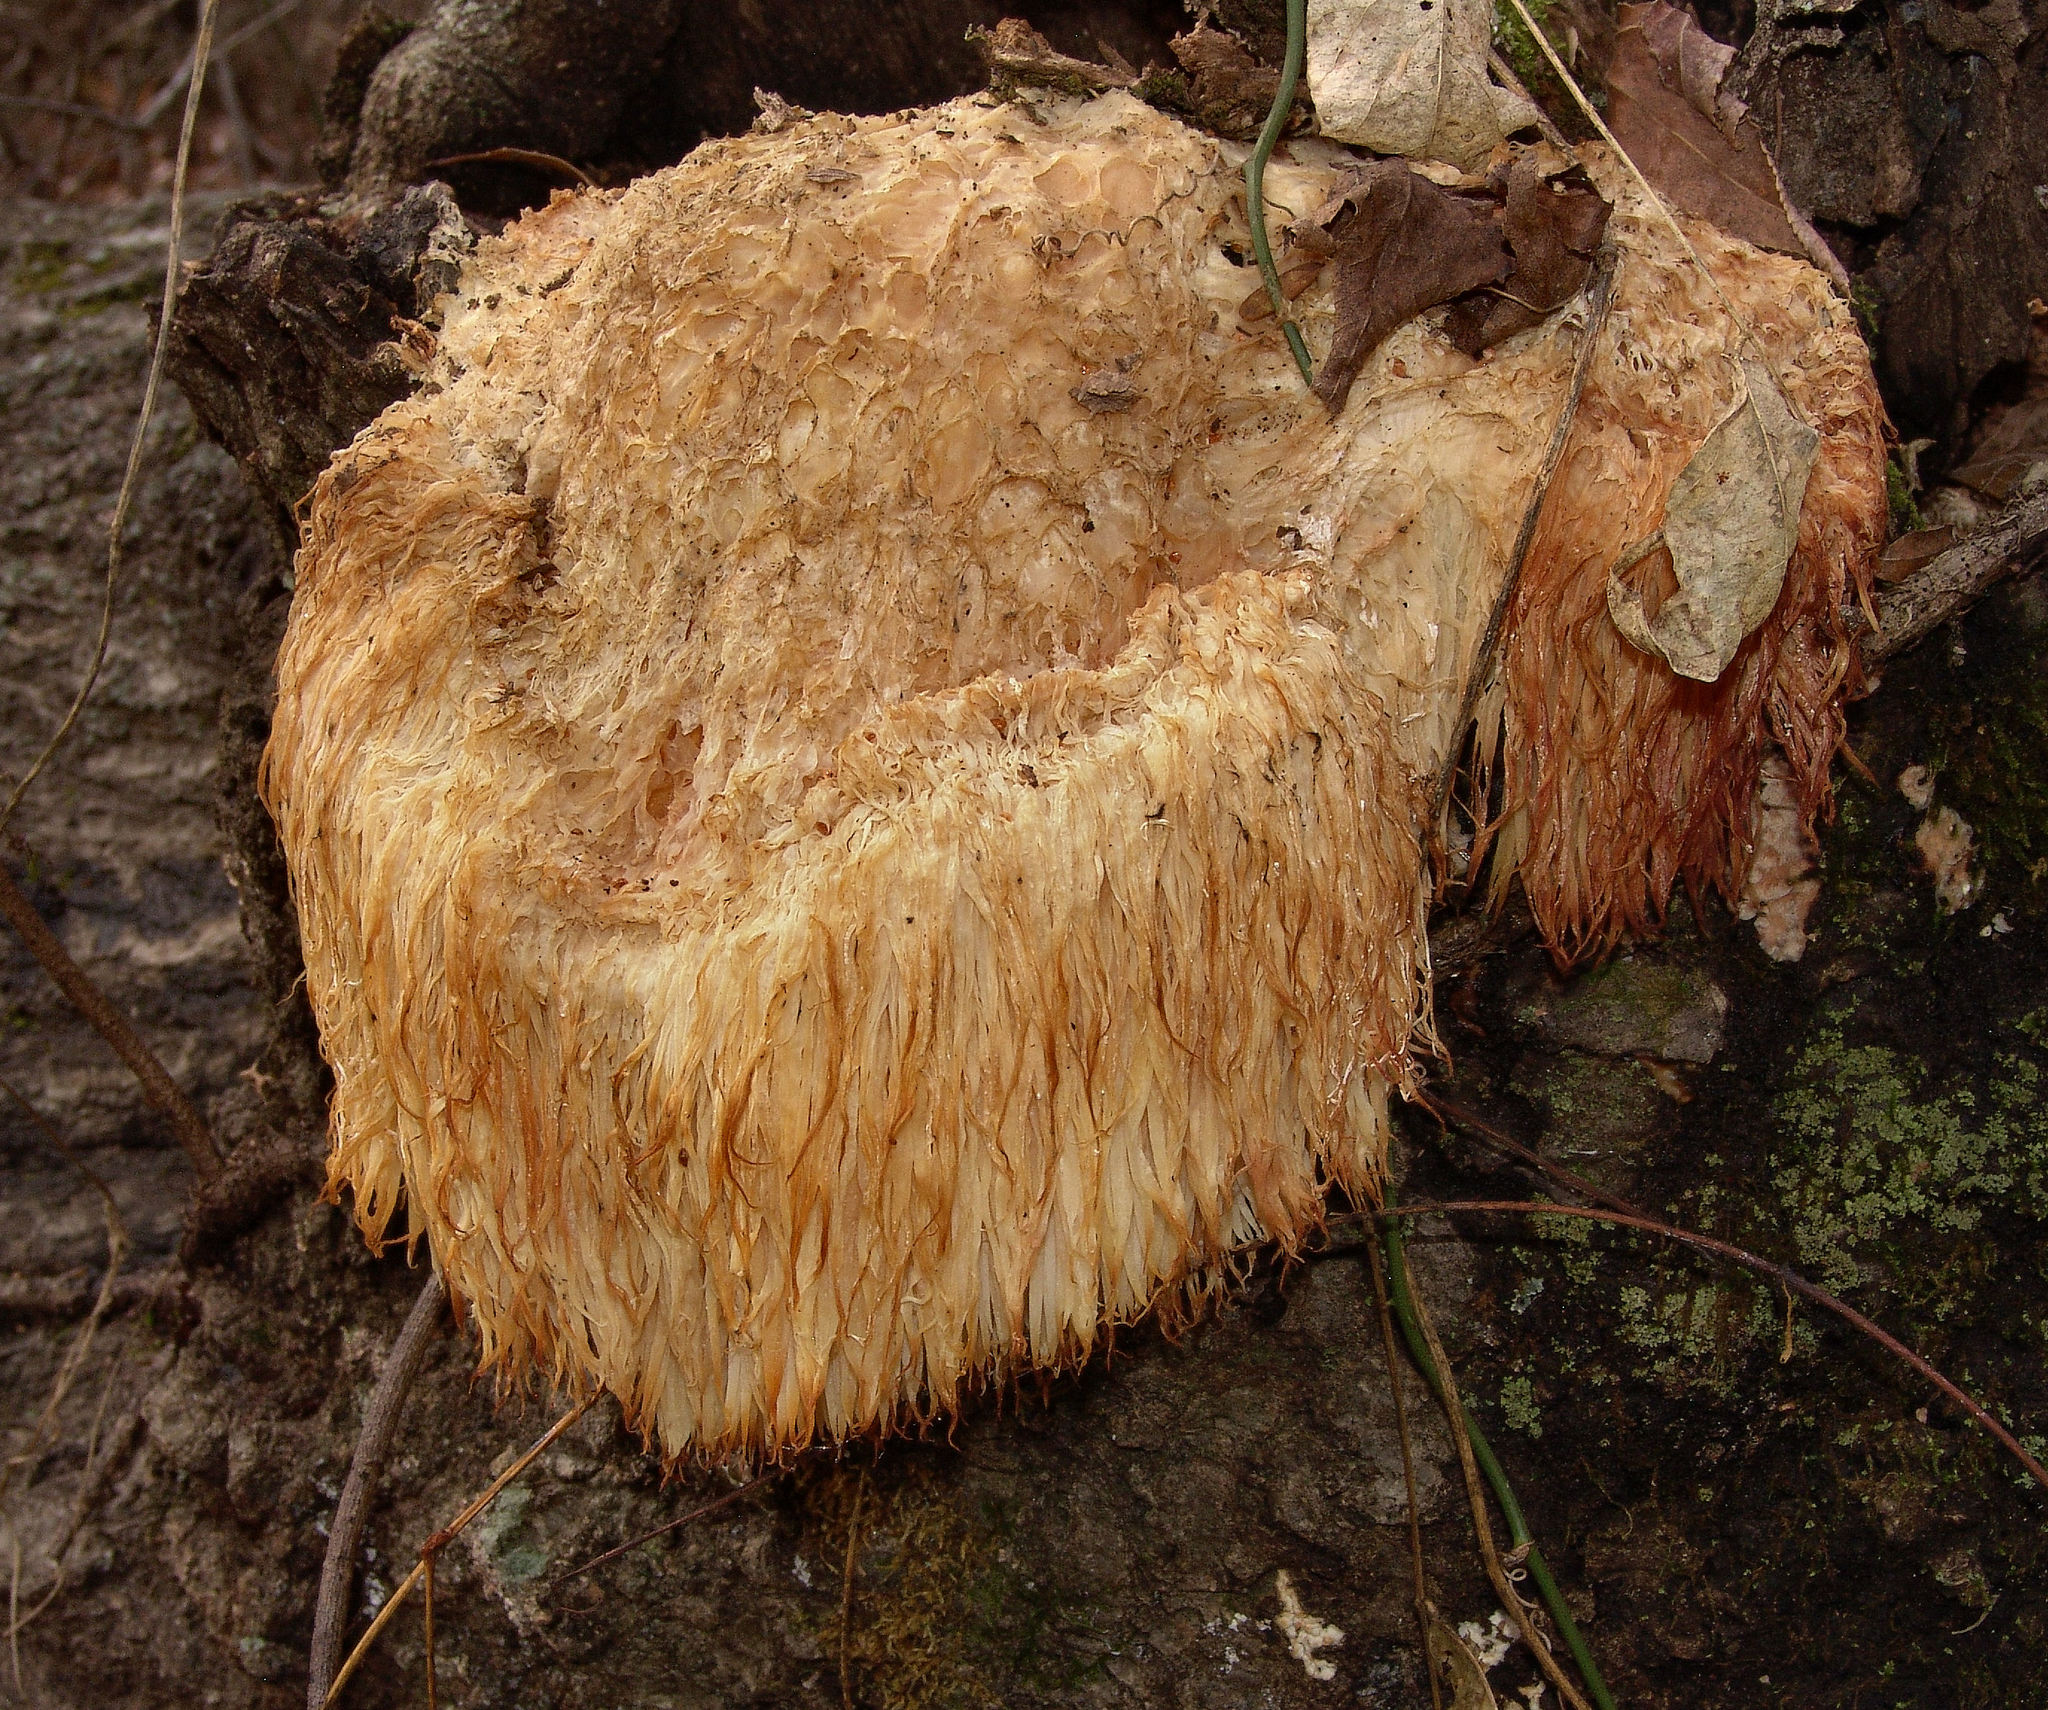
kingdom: Fungi
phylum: Basidiomycota
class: Agaricomycetes
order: Russulales
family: Hericiaceae
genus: Hericium
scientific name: Hericium erinaceus
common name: Bearded tooth
